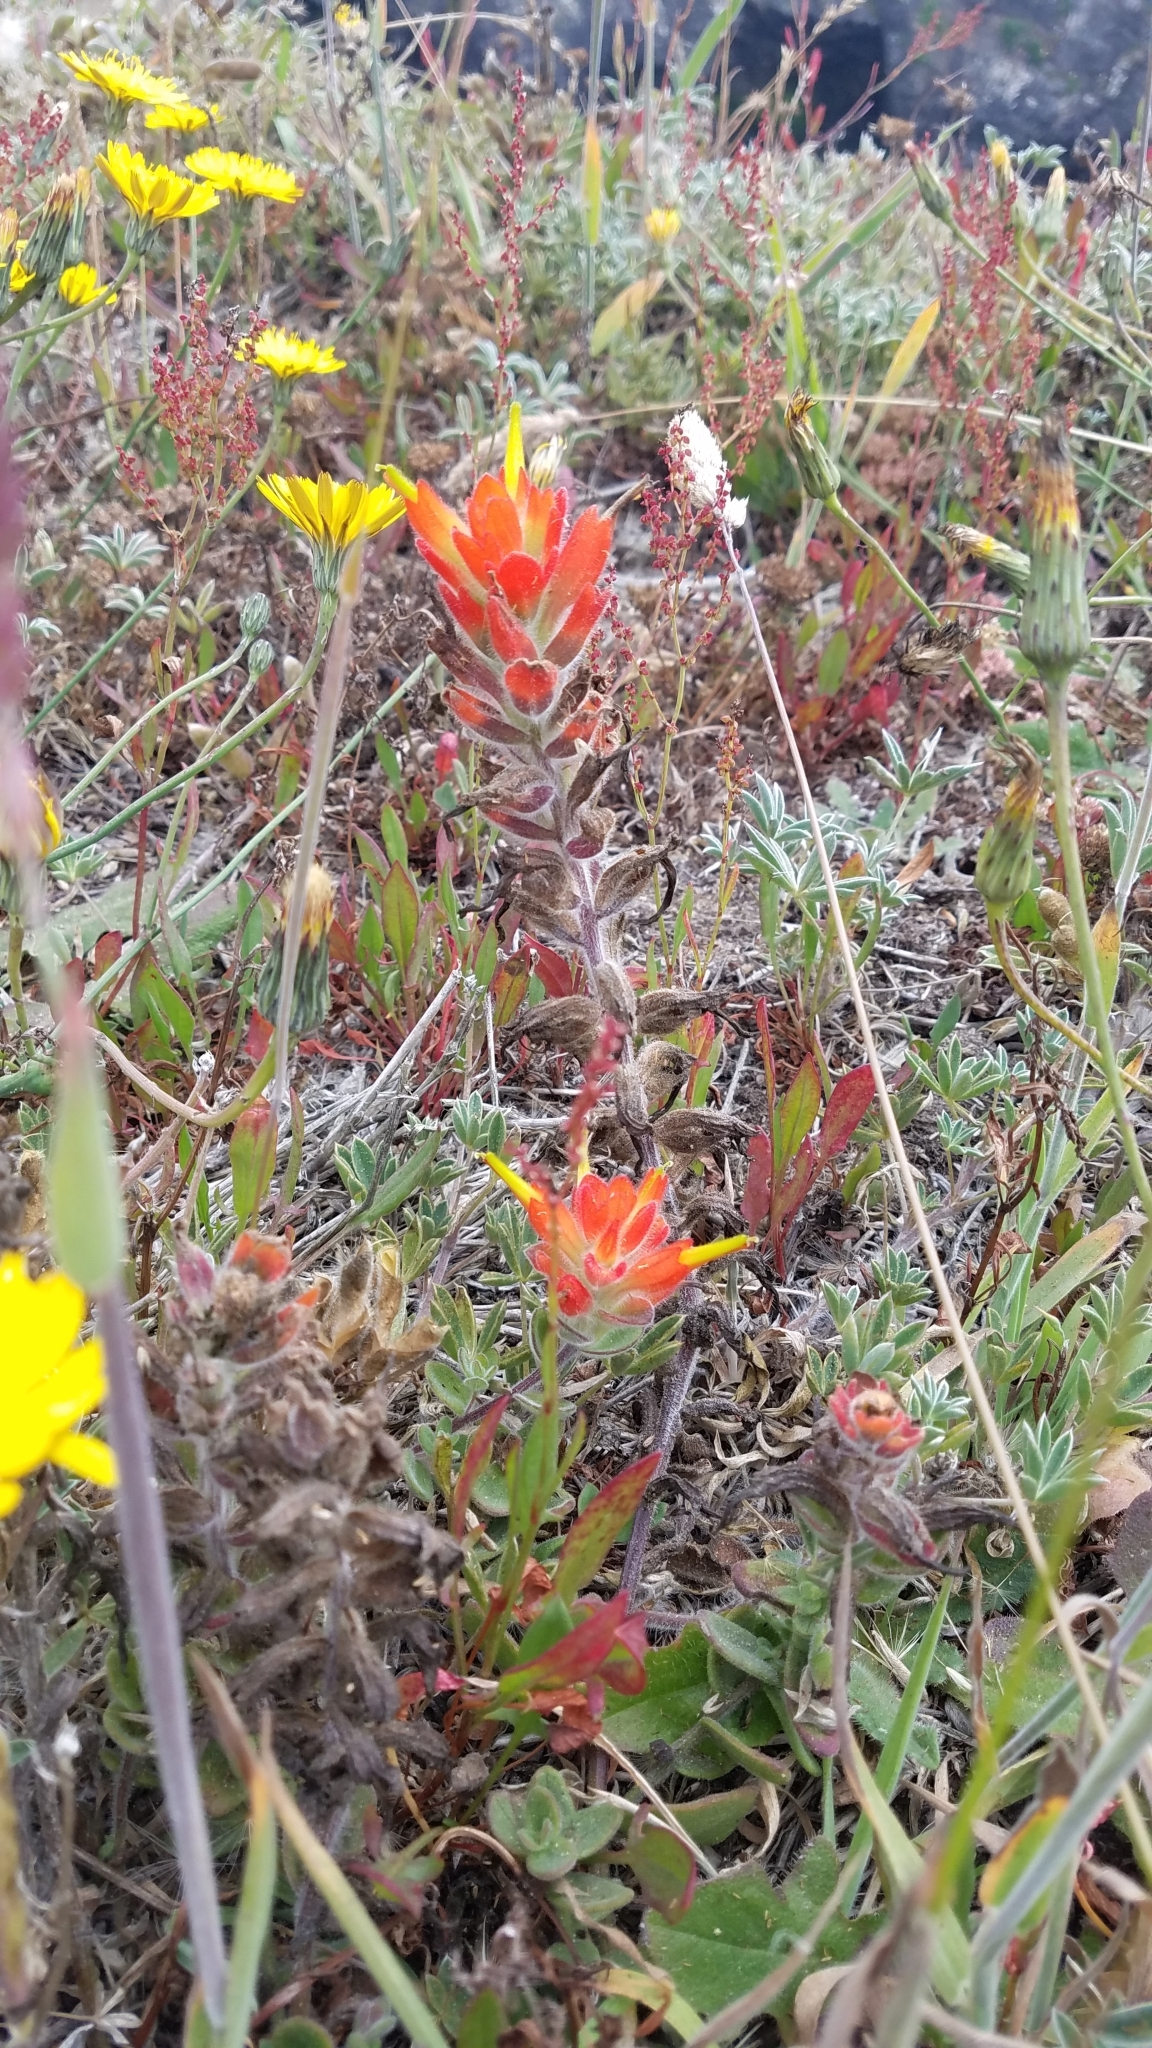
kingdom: Plantae
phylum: Tracheophyta
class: Magnoliopsida
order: Lamiales
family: Orobanchaceae
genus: Castilleja
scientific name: Castilleja mendocinensis
